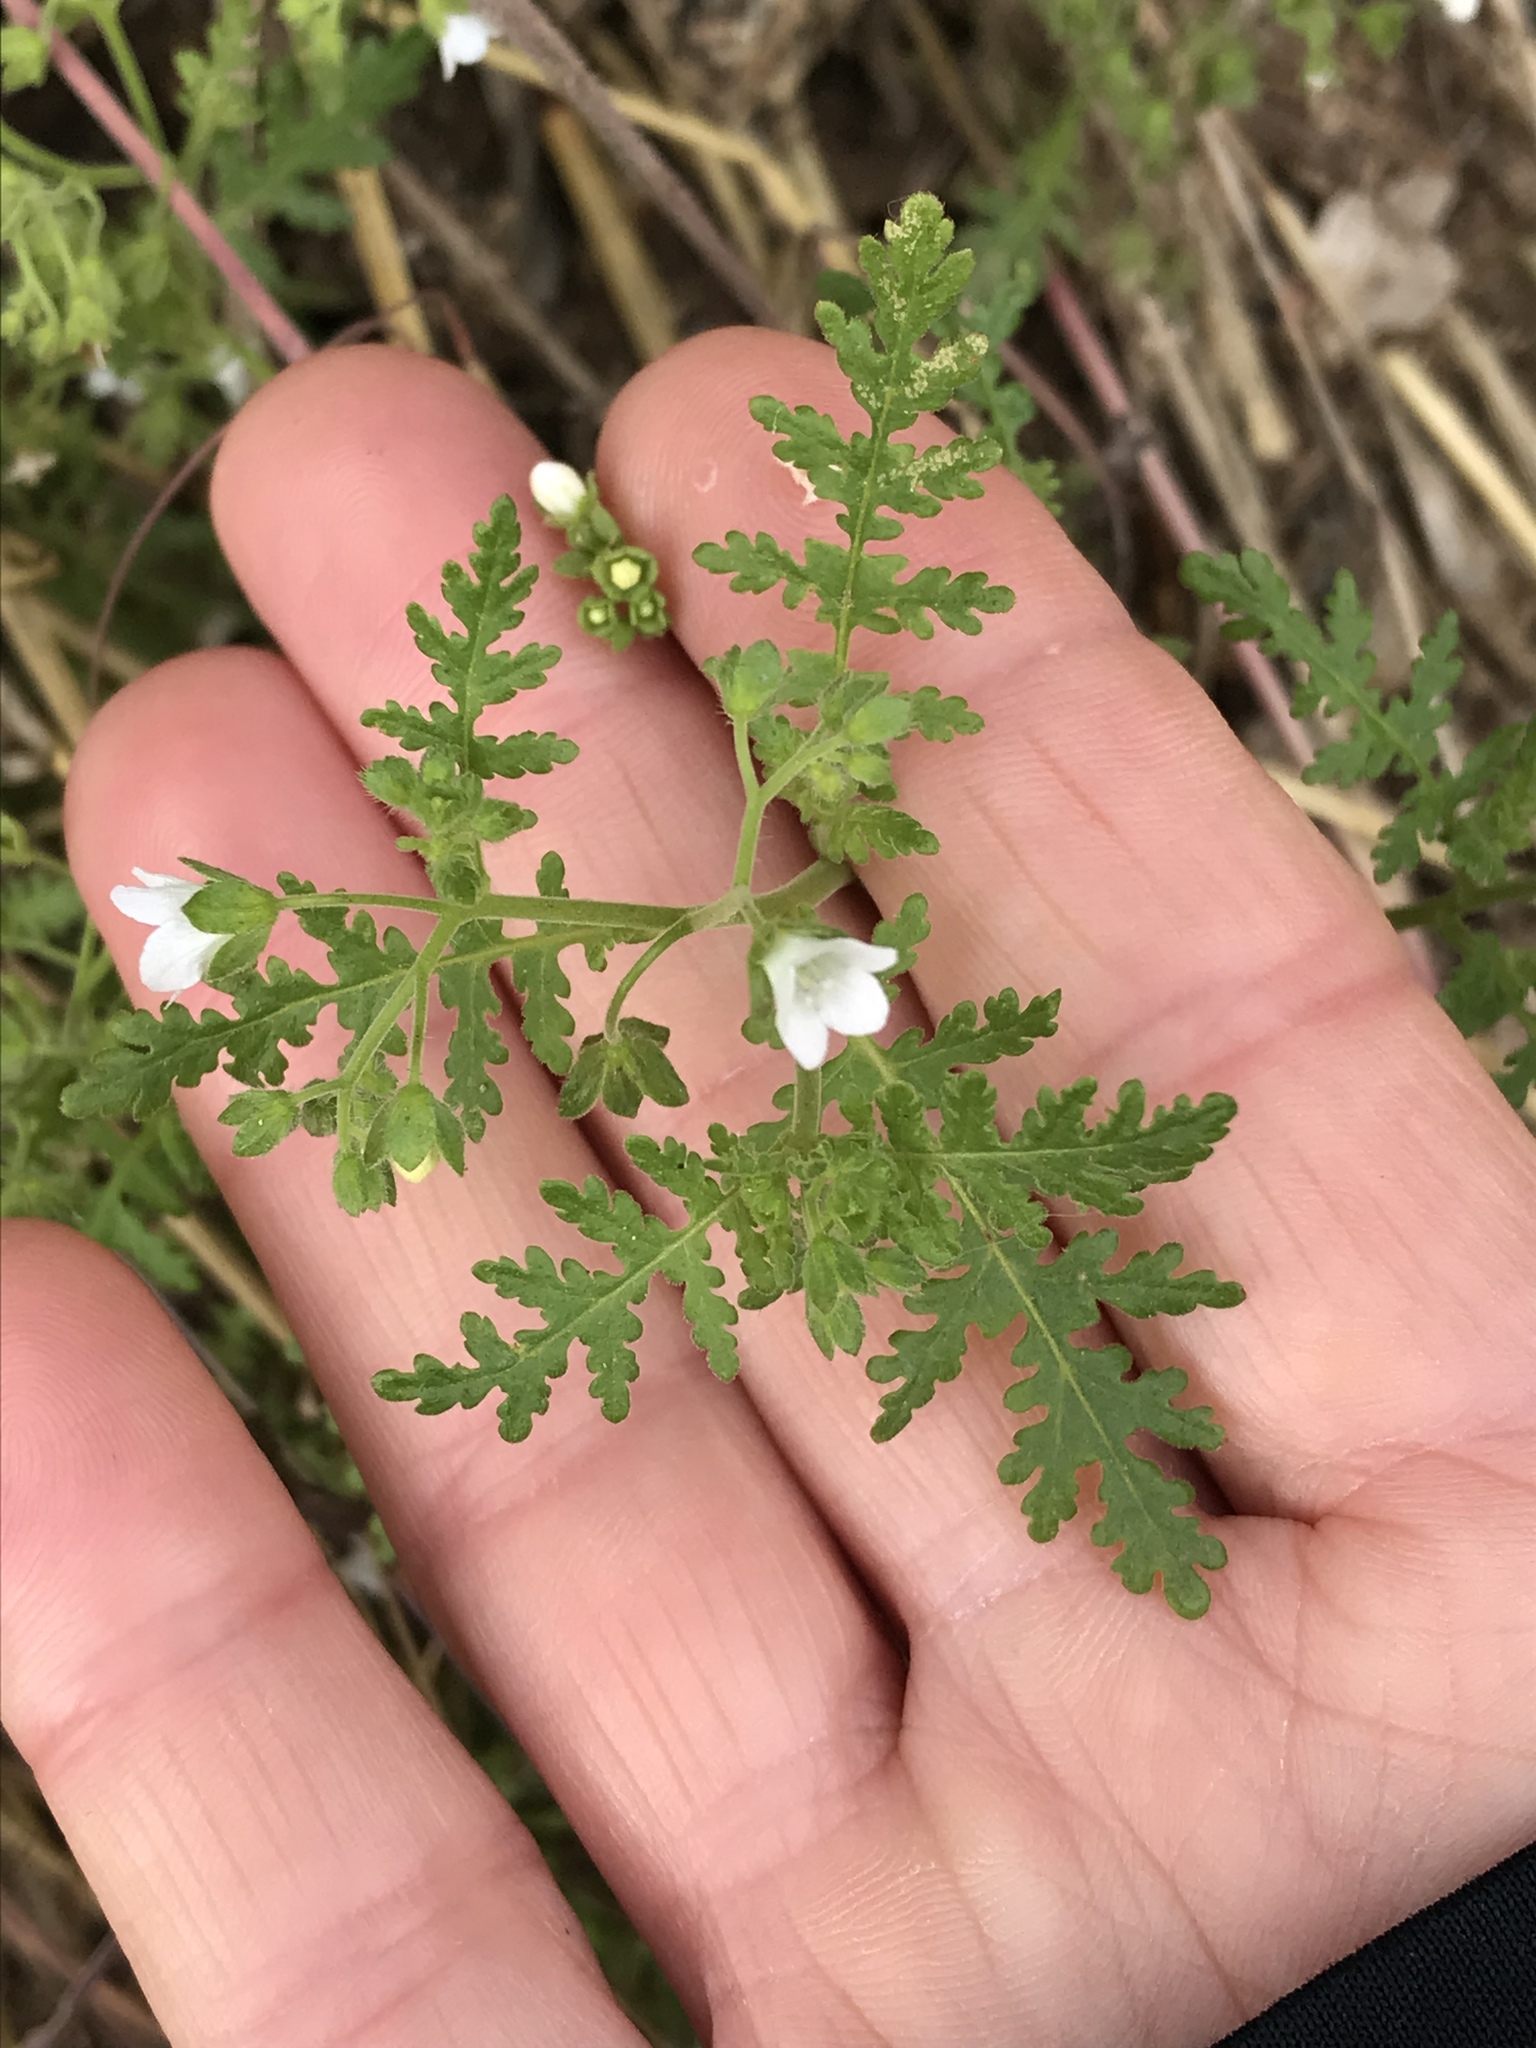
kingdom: Plantae
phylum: Tracheophyta
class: Magnoliopsida
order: Boraginales
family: Hydrophyllaceae
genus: Eucrypta
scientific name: Eucrypta chrysanthemifolia
